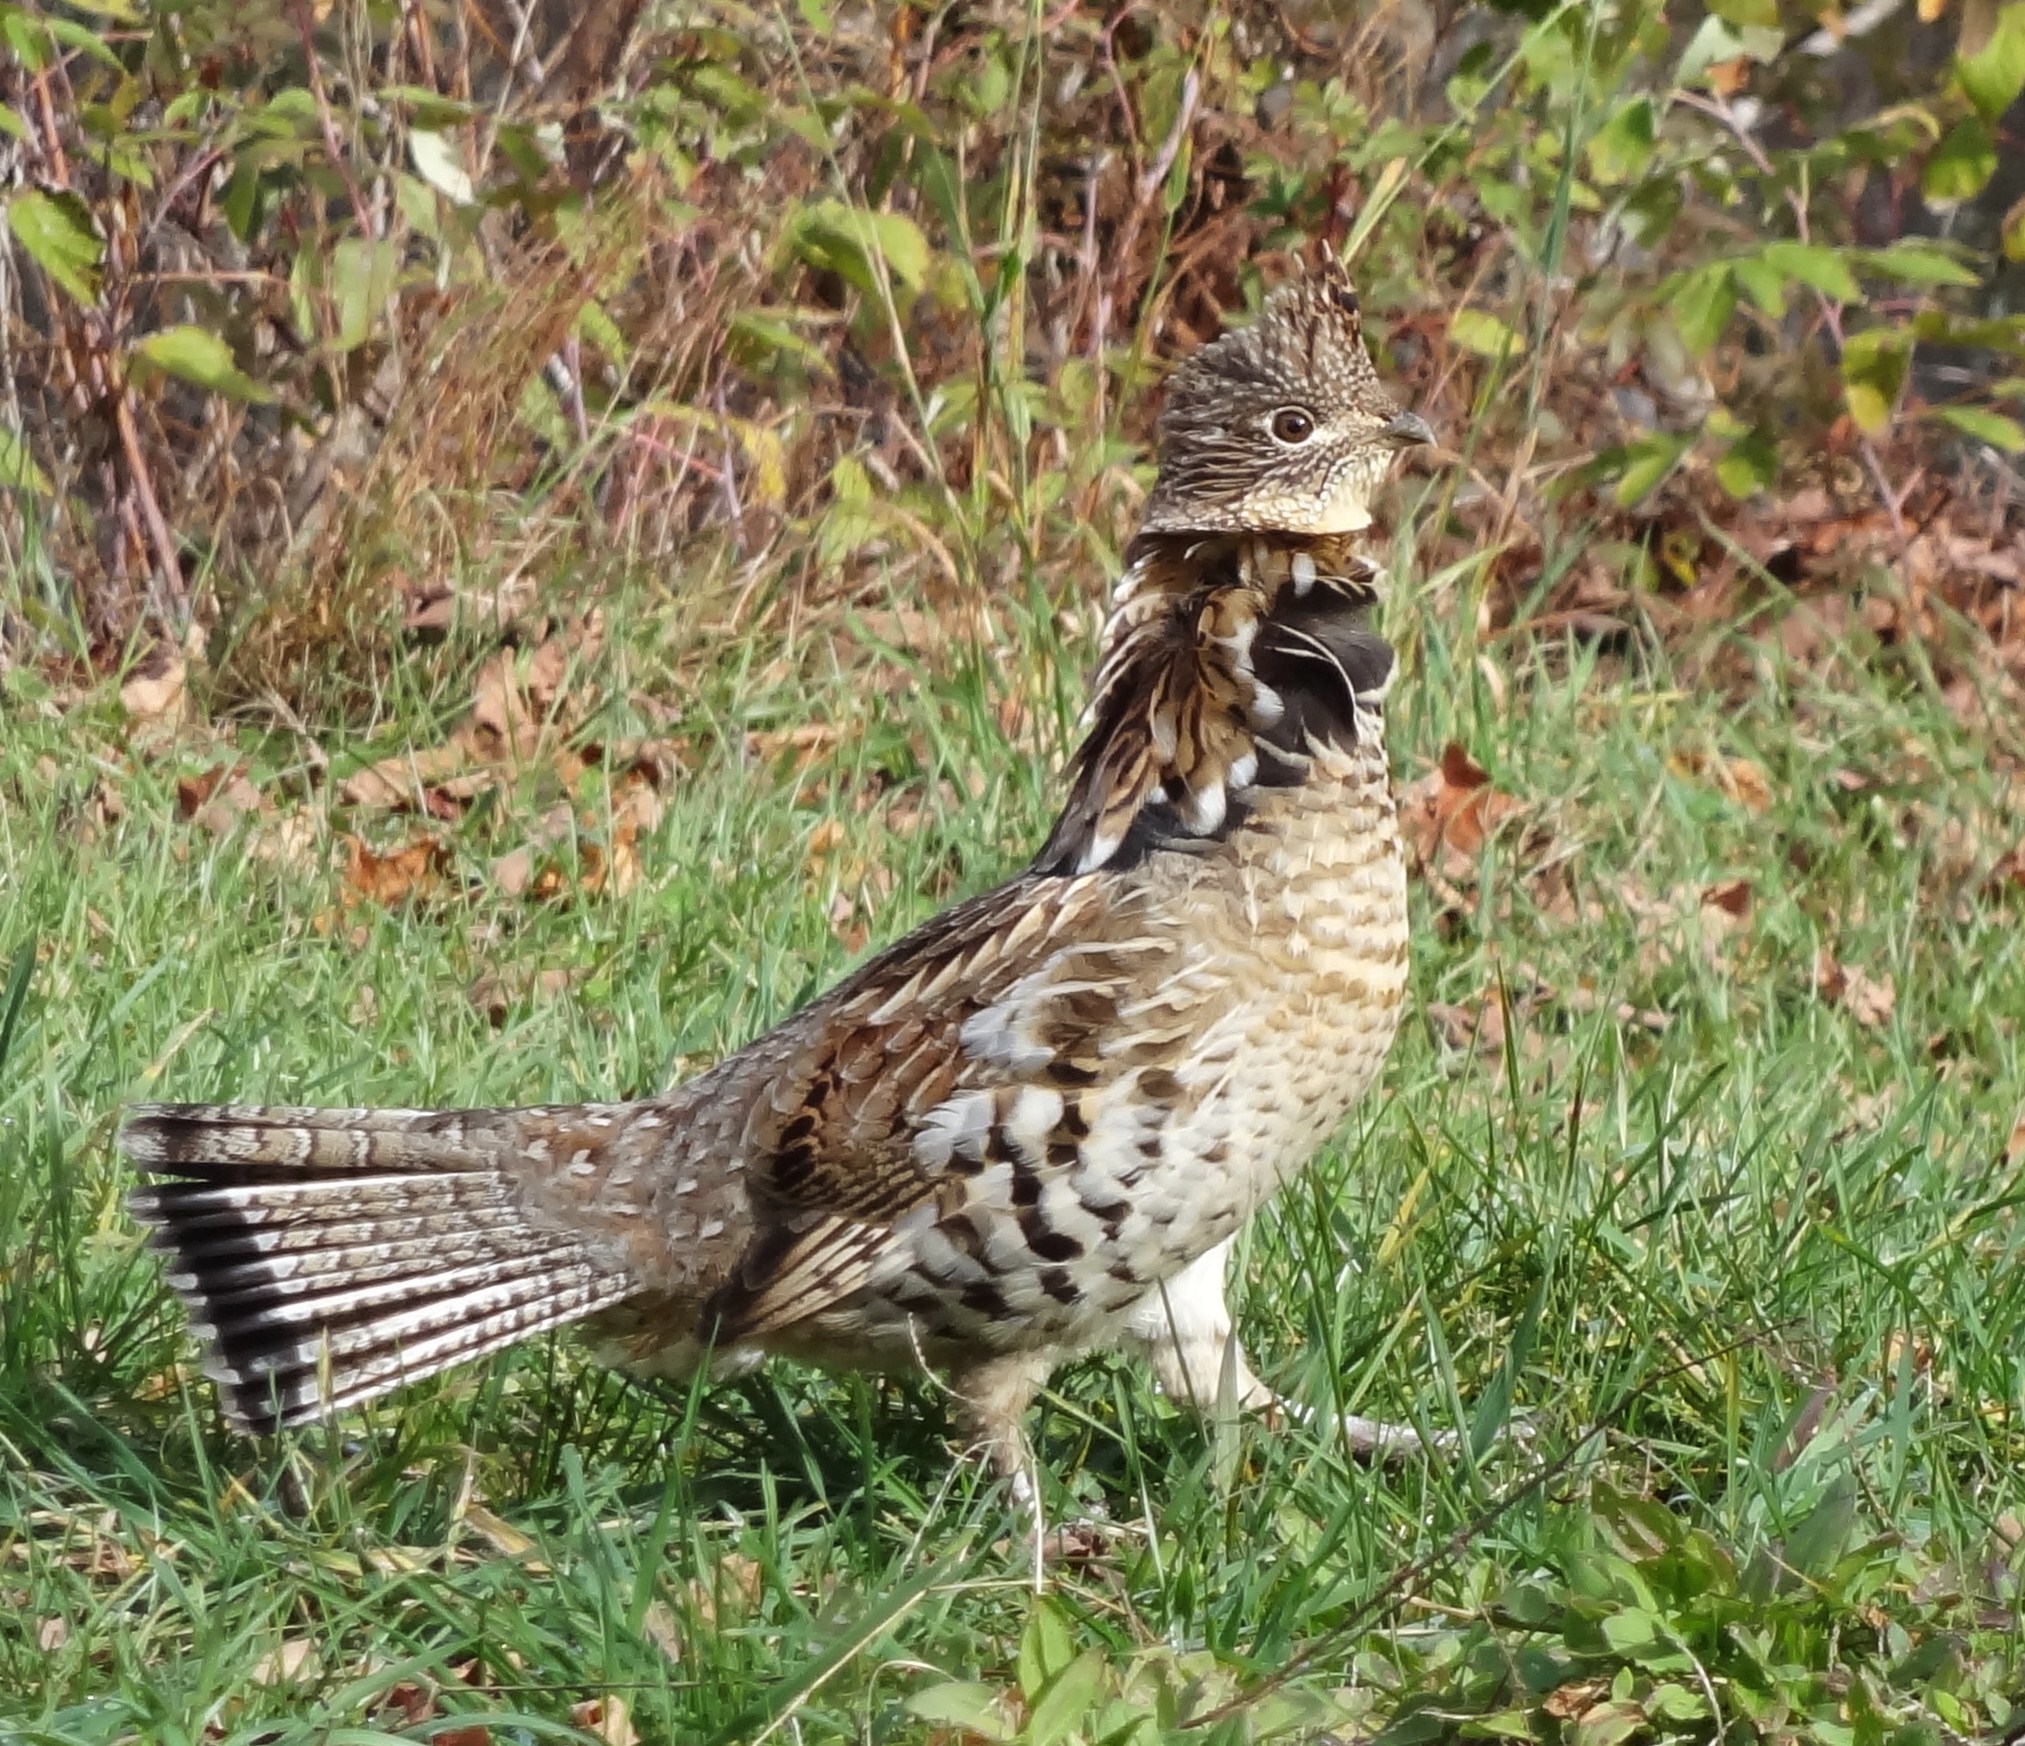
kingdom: Animalia
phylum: Chordata
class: Aves
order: Galliformes
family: Phasianidae
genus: Bonasa
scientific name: Bonasa umbellus
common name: Ruffed grouse
